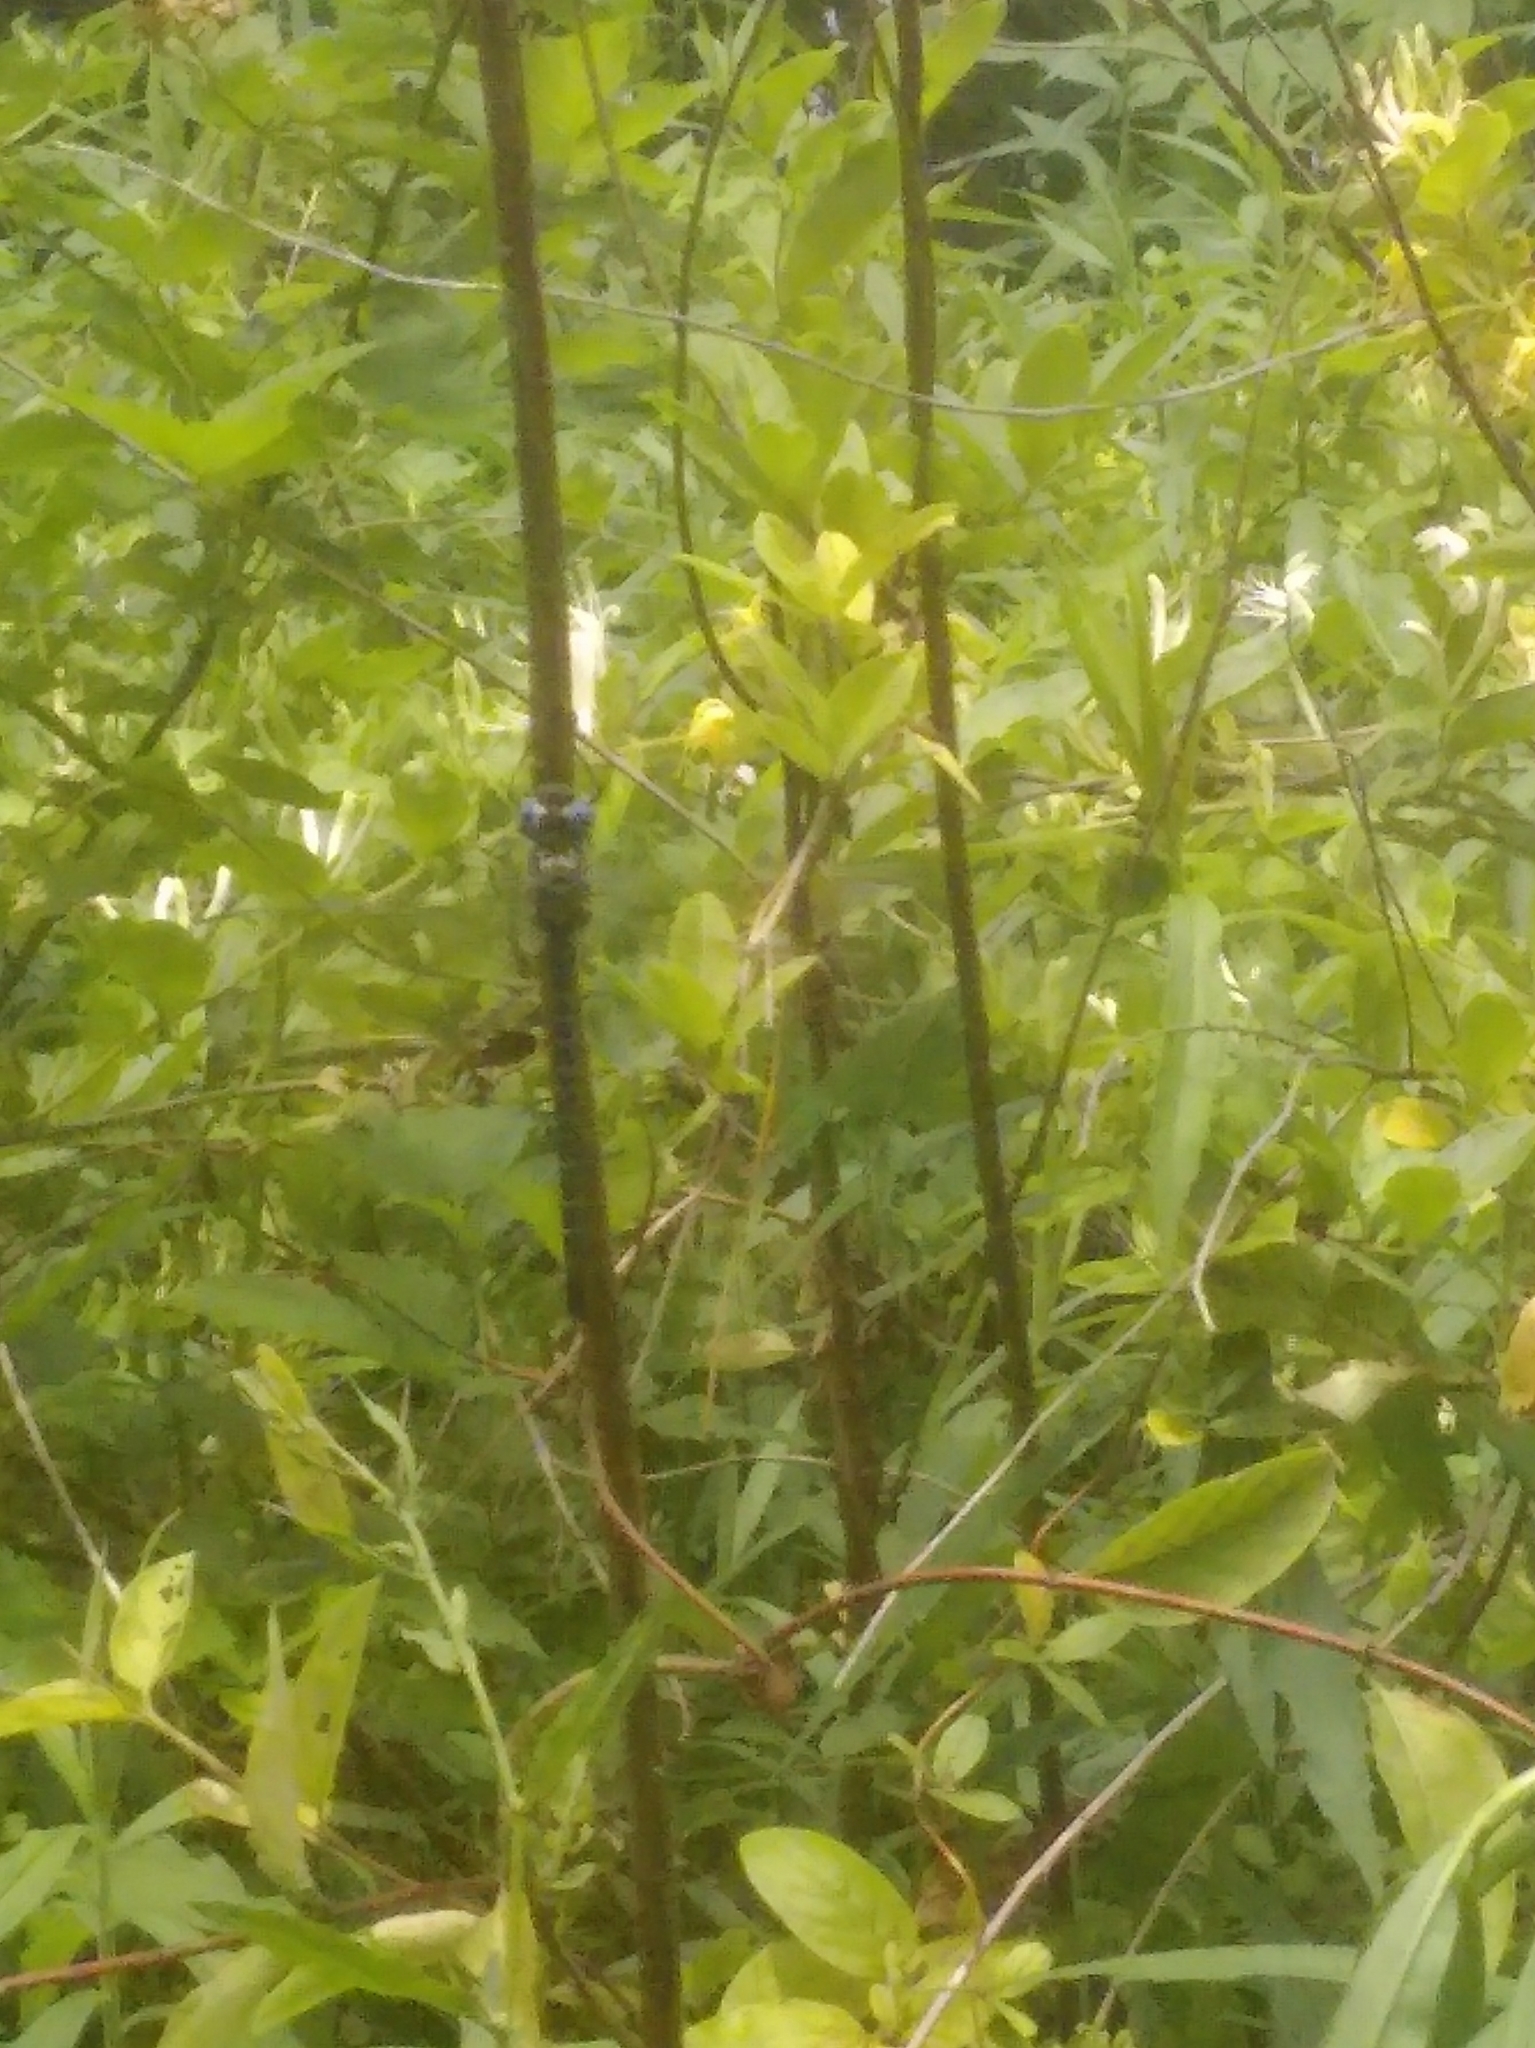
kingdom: Animalia
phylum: Arthropoda
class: Insecta
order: Odonata
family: Aeshnidae
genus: Epiaeschna
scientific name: Epiaeschna heros
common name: Swamp darner
